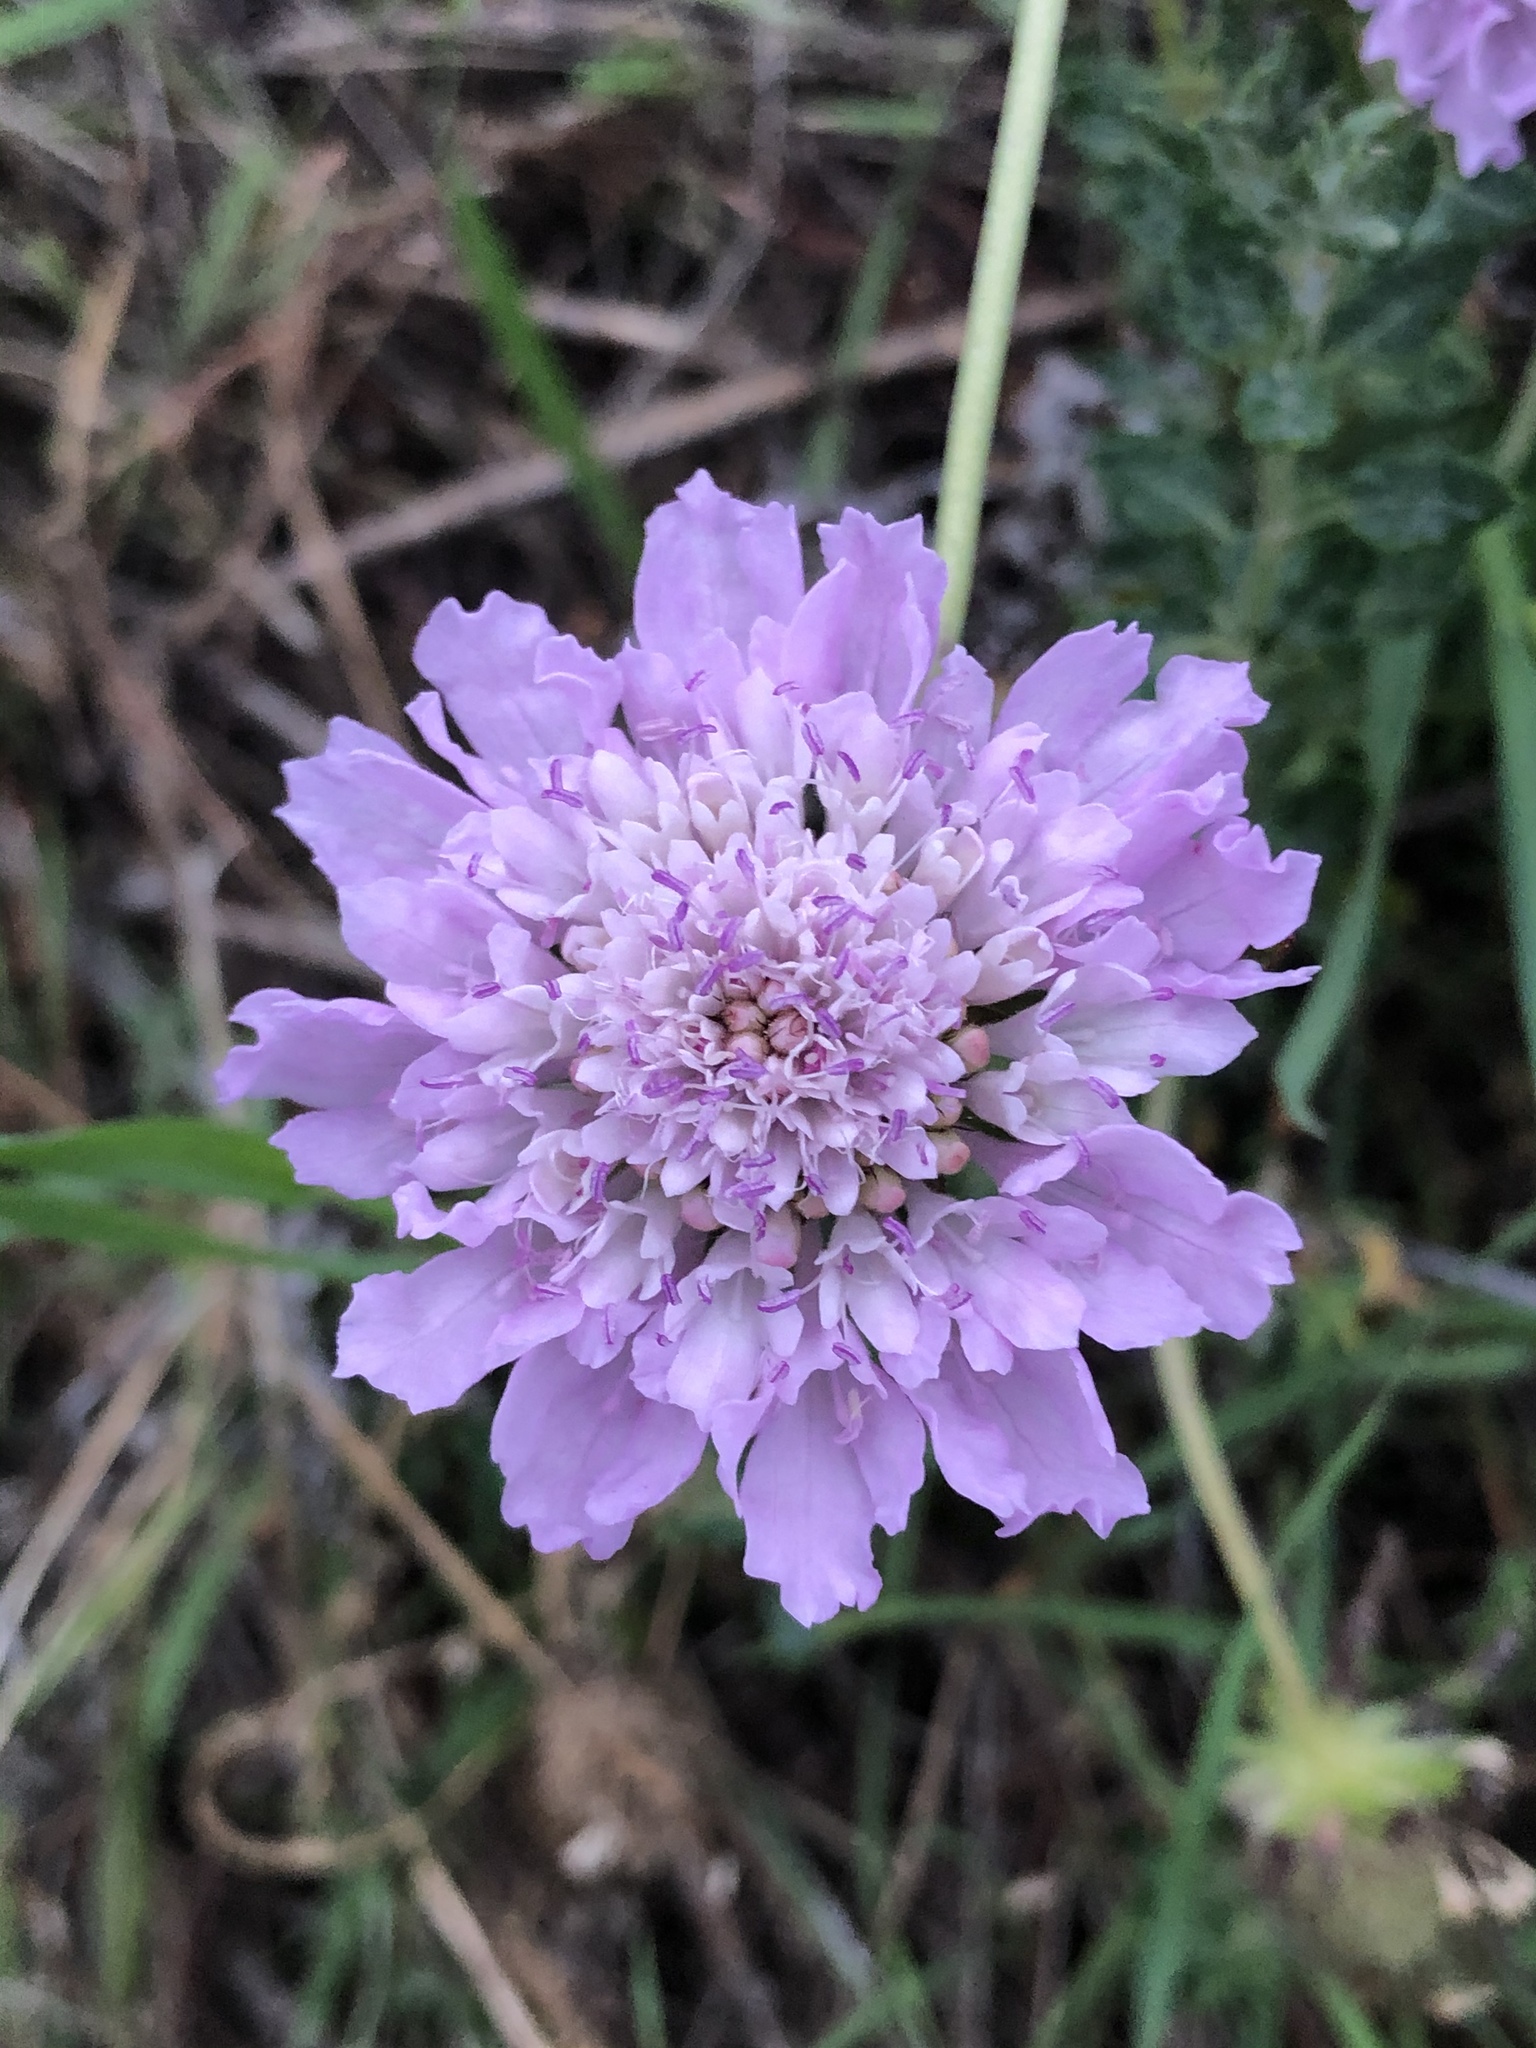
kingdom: Plantae
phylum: Tracheophyta
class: Magnoliopsida
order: Dipsacales
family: Caprifoliaceae
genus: Sixalix
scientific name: Sixalix atropurpurea
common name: Sweet scabious
